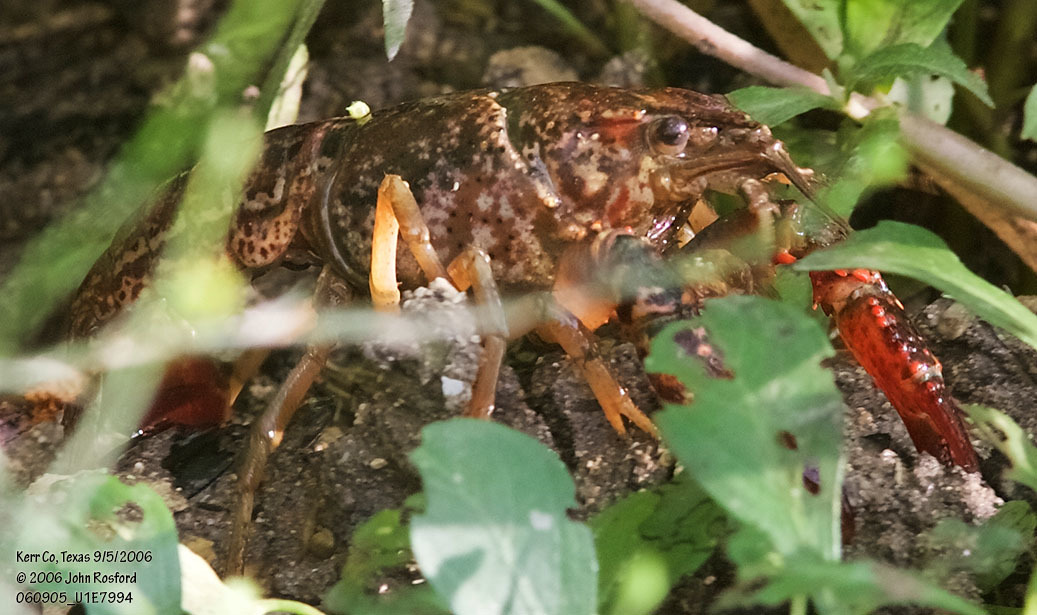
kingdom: Animalia
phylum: Arthropoda
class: Malacostraca
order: Decapoda
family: Cambaridae
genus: Procambarus
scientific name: Procambarus clarkii
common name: Red swamp crayfish
